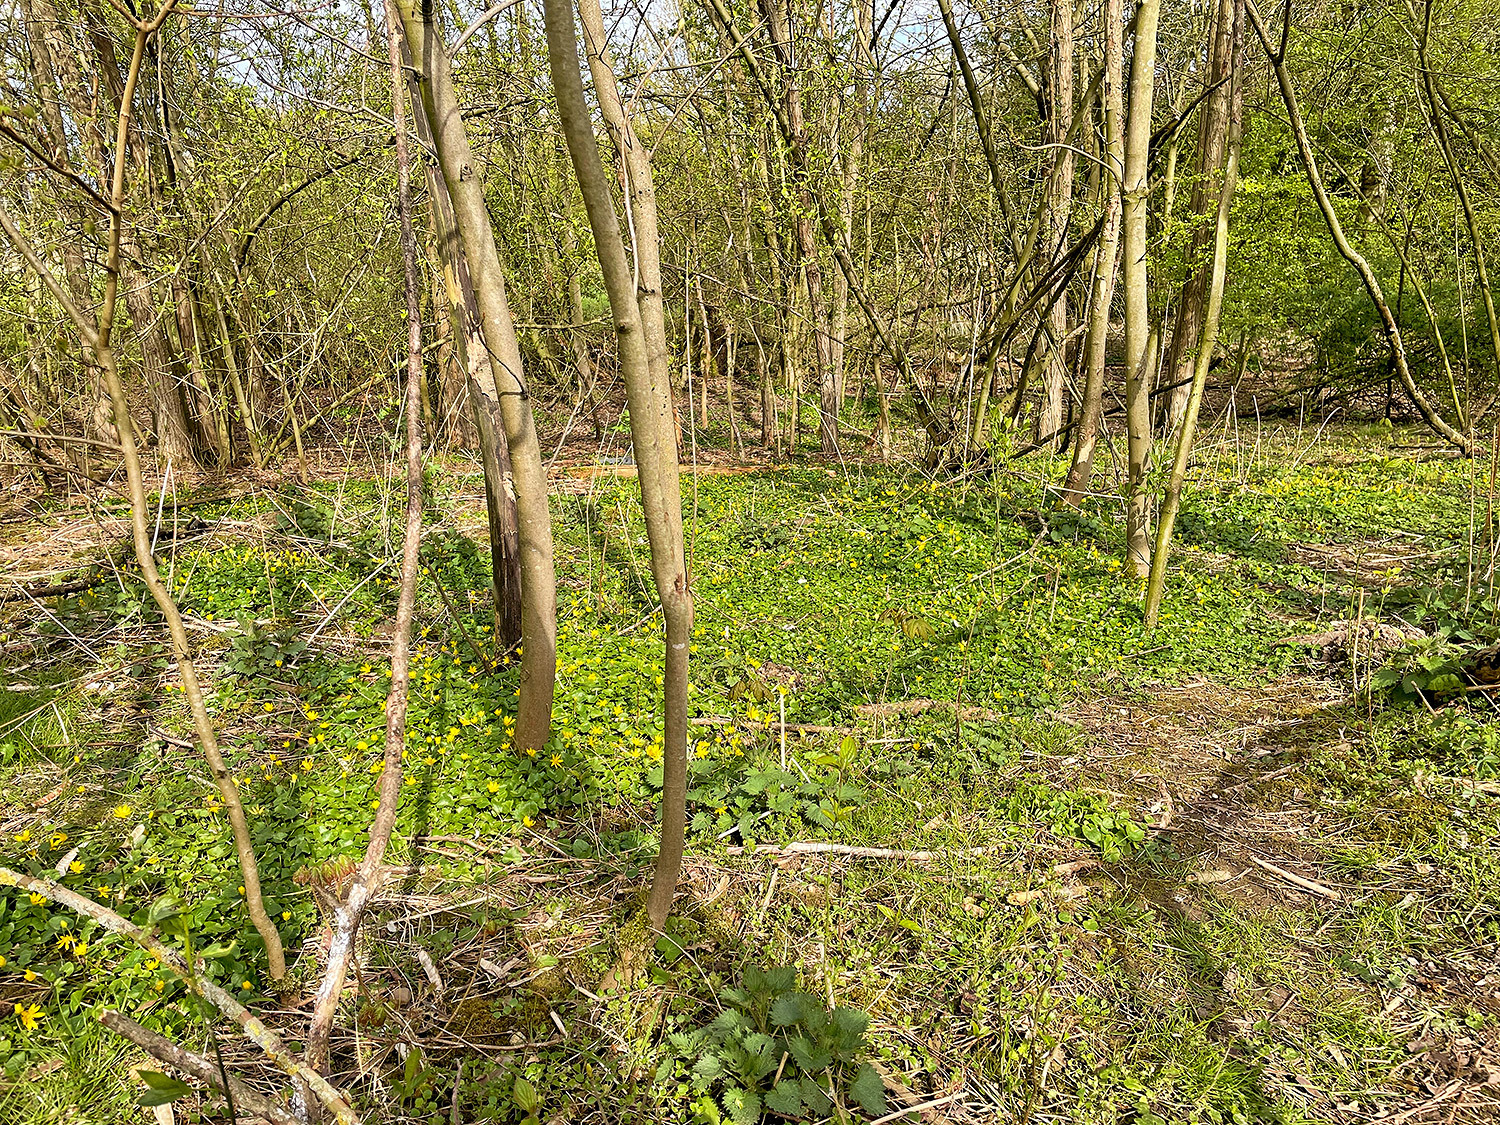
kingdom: Plantae
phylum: Tracheophyta
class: Magnoliopsida
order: Ranunculales
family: Ranunculaceae
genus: Ficaria
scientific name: Ficaria verna
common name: Lesser celandine
